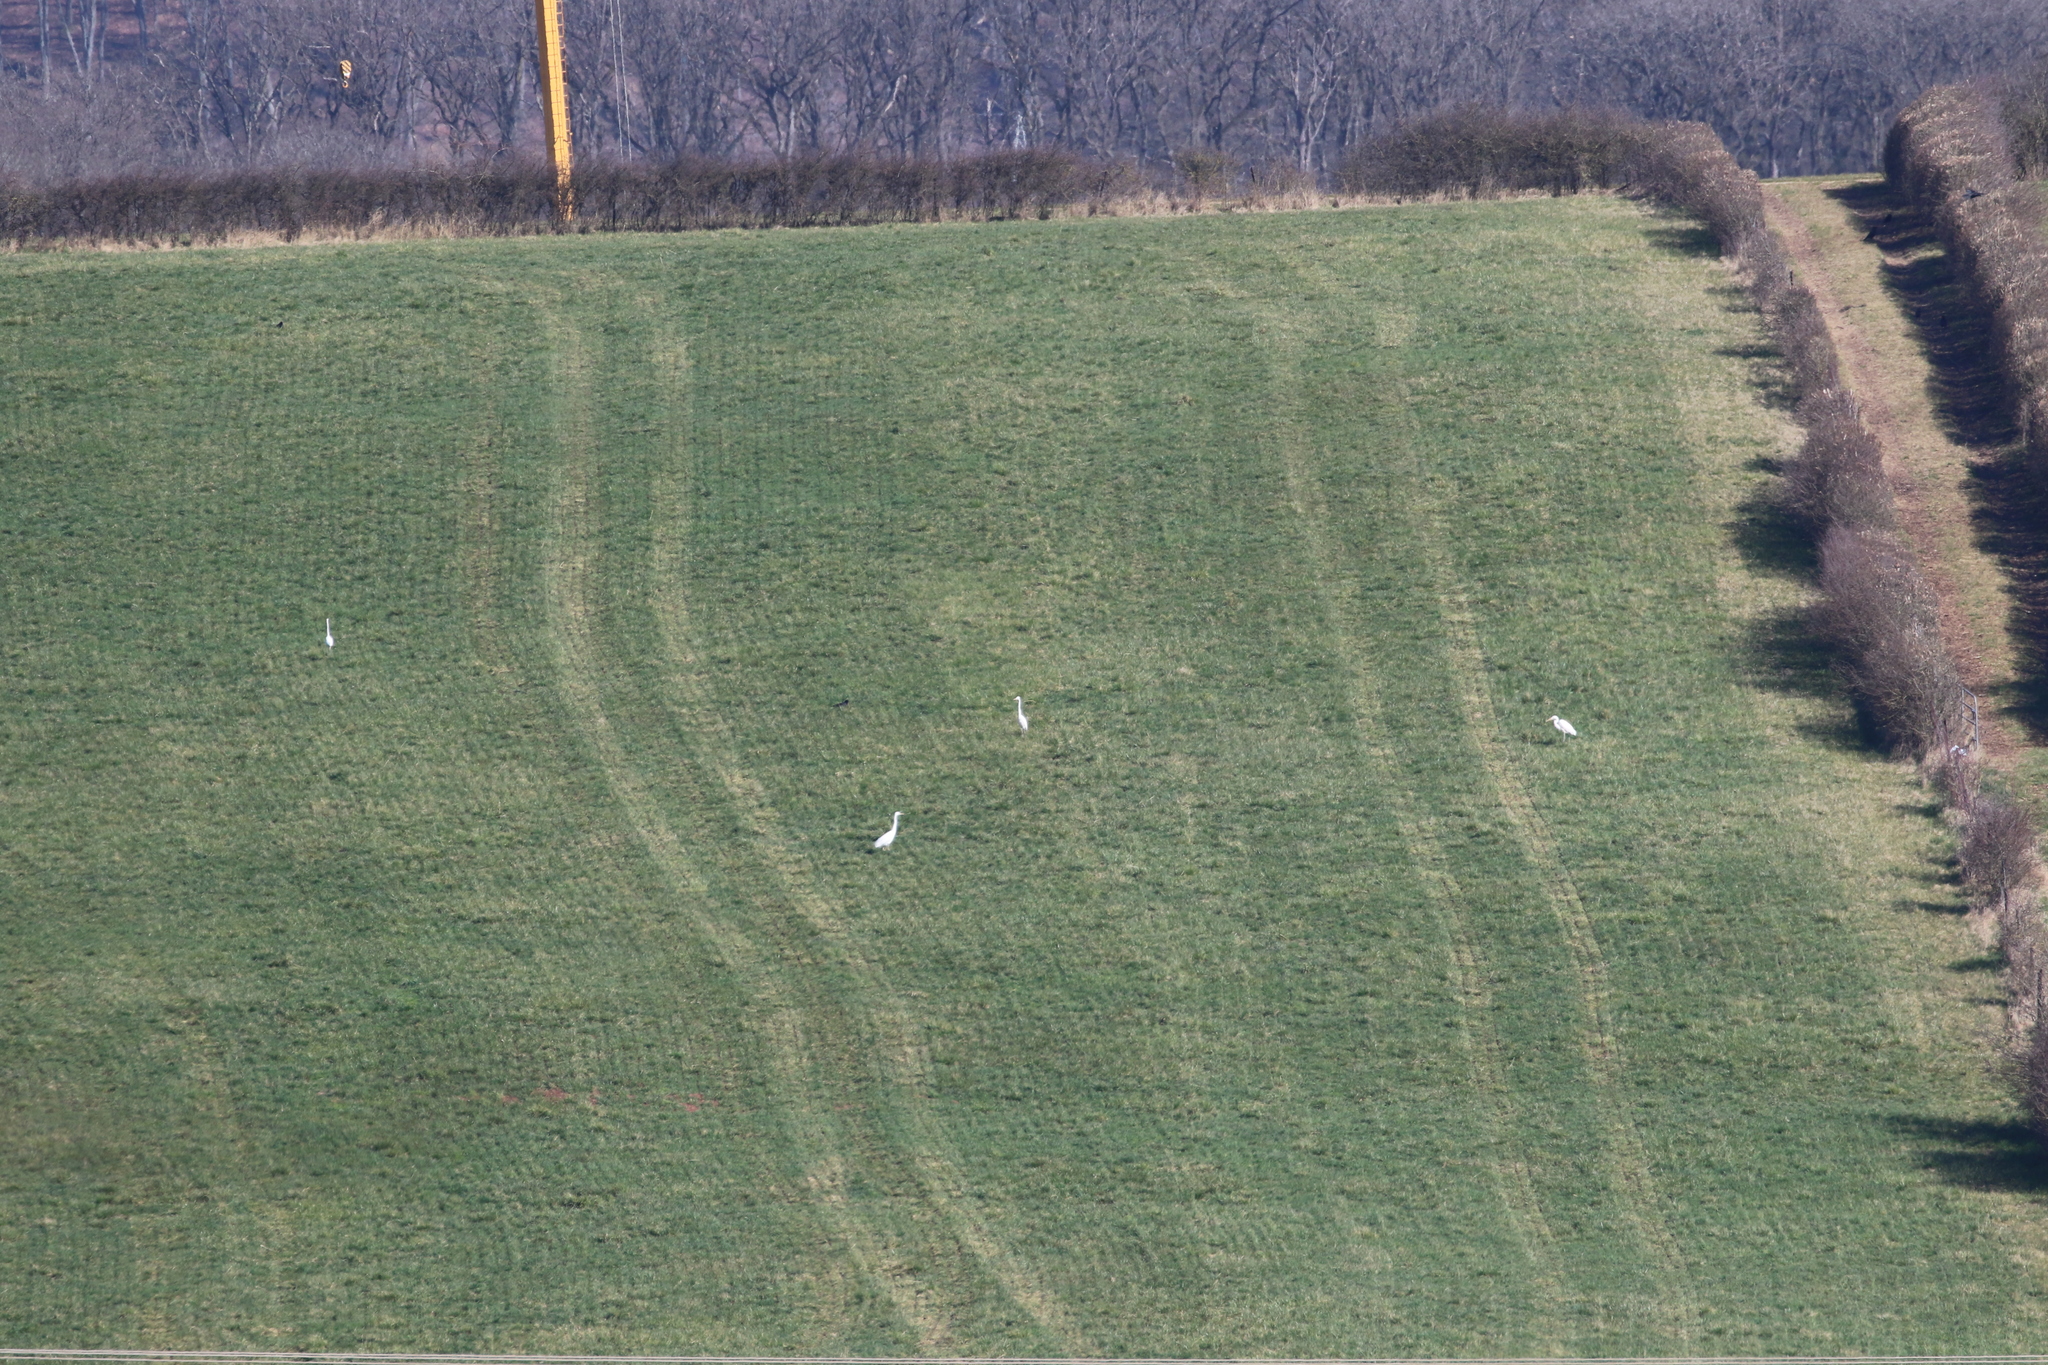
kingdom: Animalia
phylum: Chordata
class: Aves
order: Pelecaniformes
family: Ardeidae
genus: Ardea
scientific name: Ardea alba
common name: Great egret
